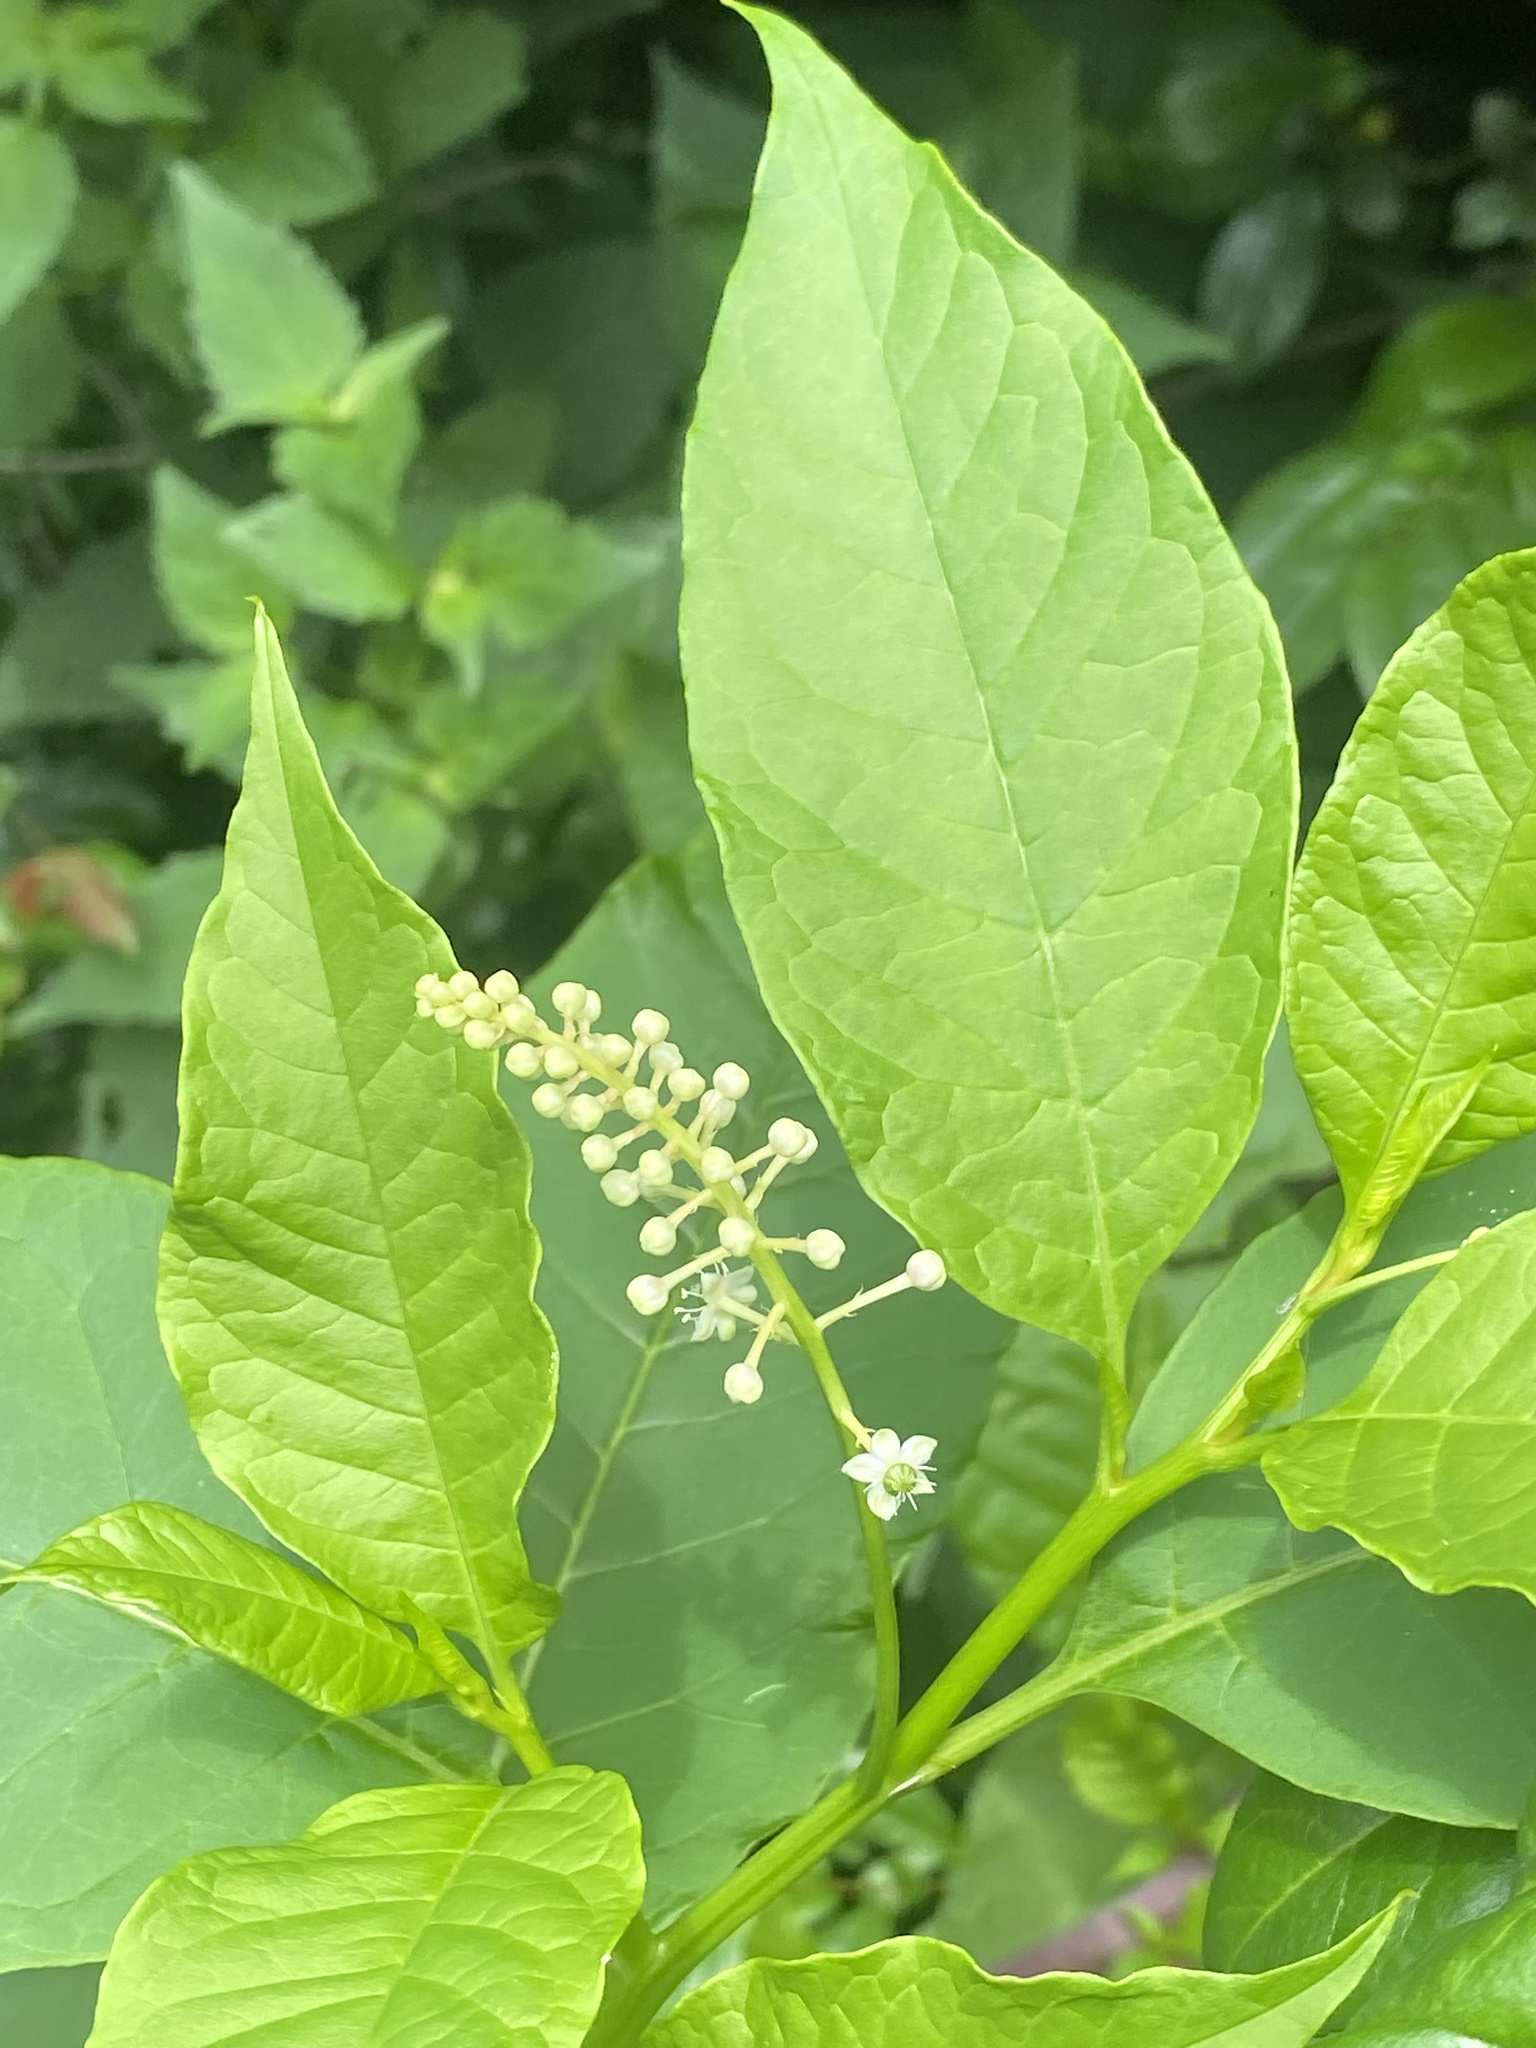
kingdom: Plantae
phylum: Tracheophyta
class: Magnoliopsida
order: Caryophyllales
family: Phytolaccaceae
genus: Phytolacca
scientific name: Phytolacca americana
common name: American pokeweed
